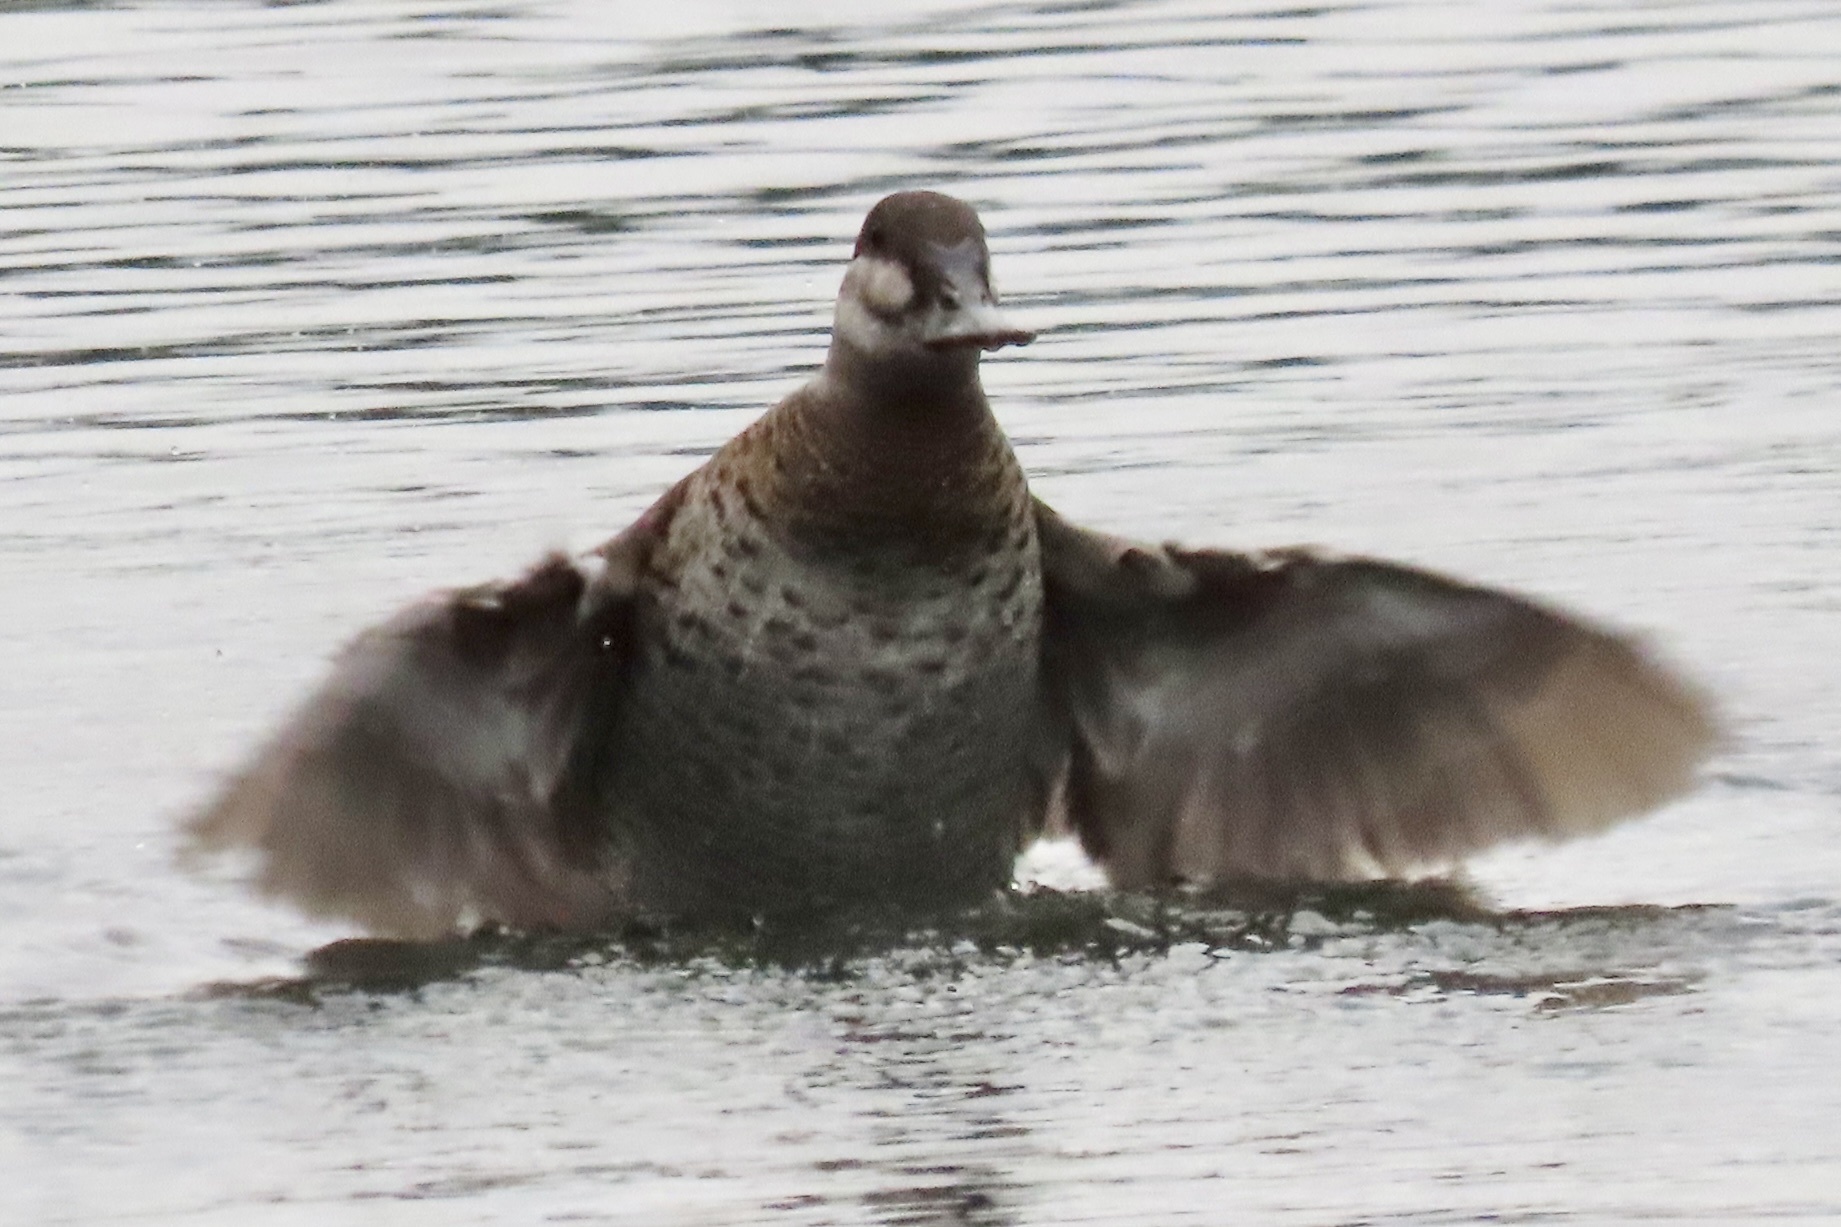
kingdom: Animalia
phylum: Chordata
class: Aves
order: Anseriformes
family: Anatidae
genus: Oxyura
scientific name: Oxyura jamaicensis
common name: Ruddy duck
